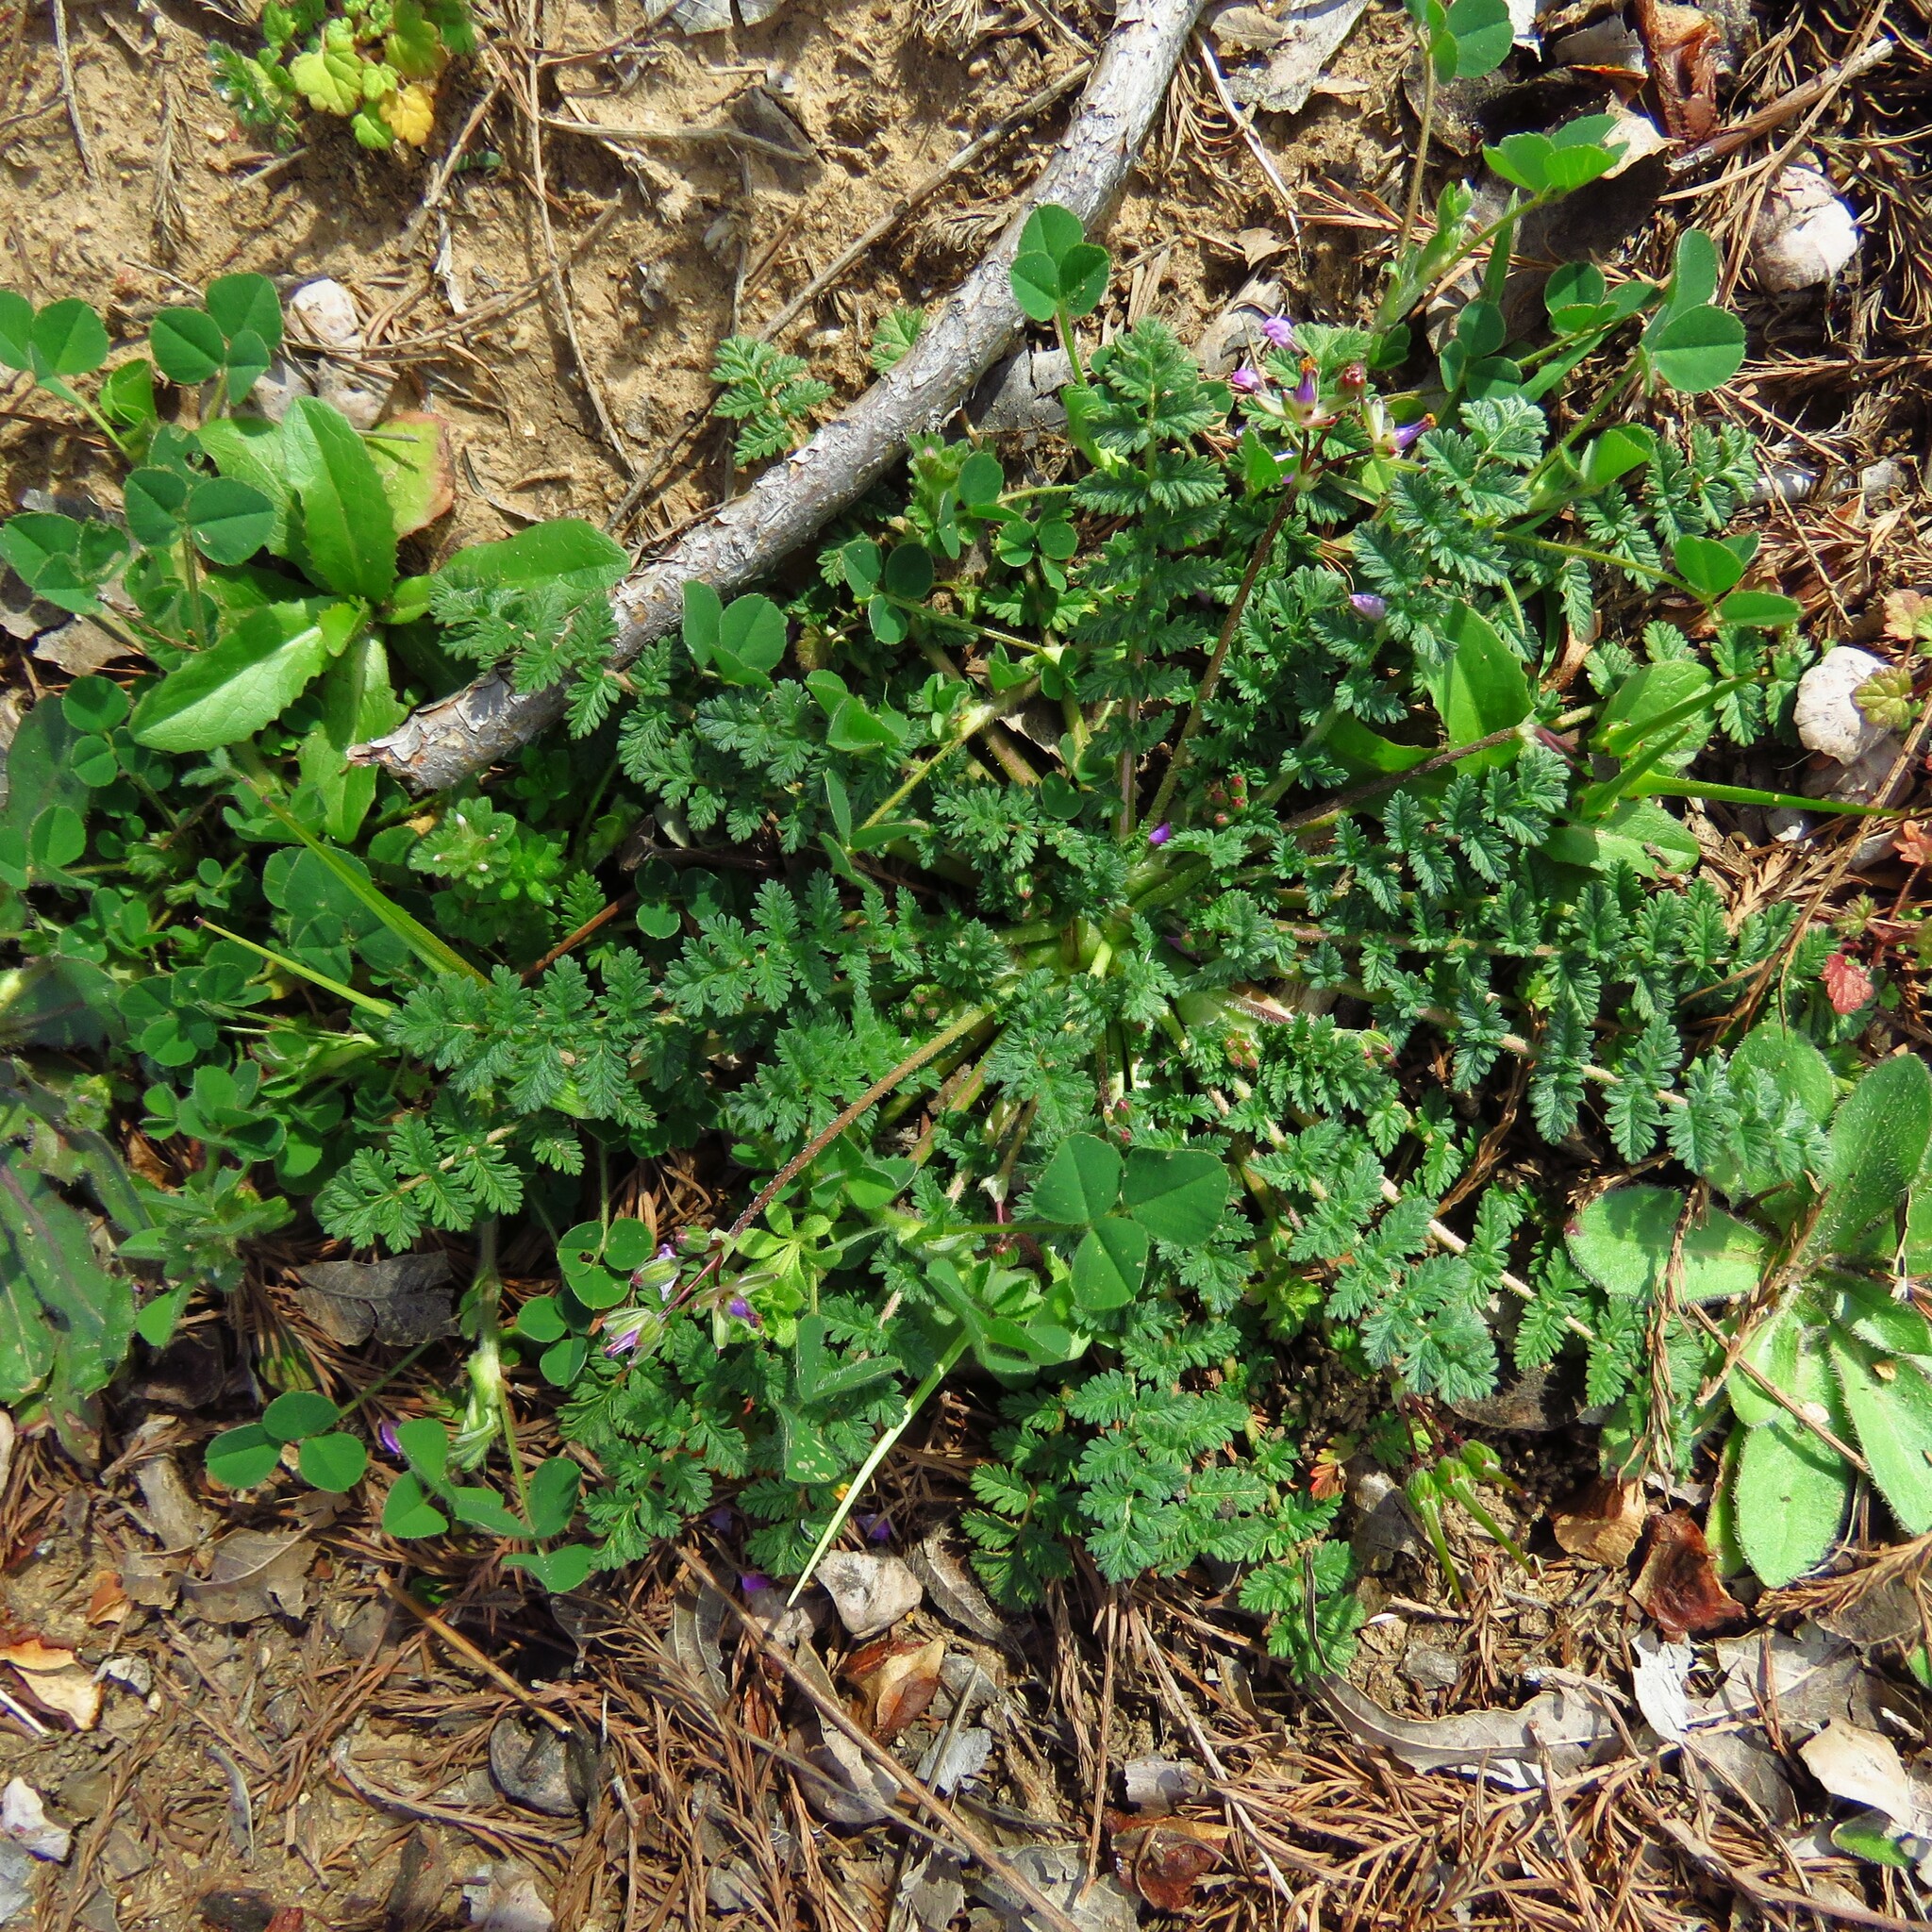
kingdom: Plantae
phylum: Tracheophyta
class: Magnoliopsida
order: Geraniales
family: Geraniaceae
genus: Erodium
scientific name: Erodium cicutarium
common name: Common stork's-bill
